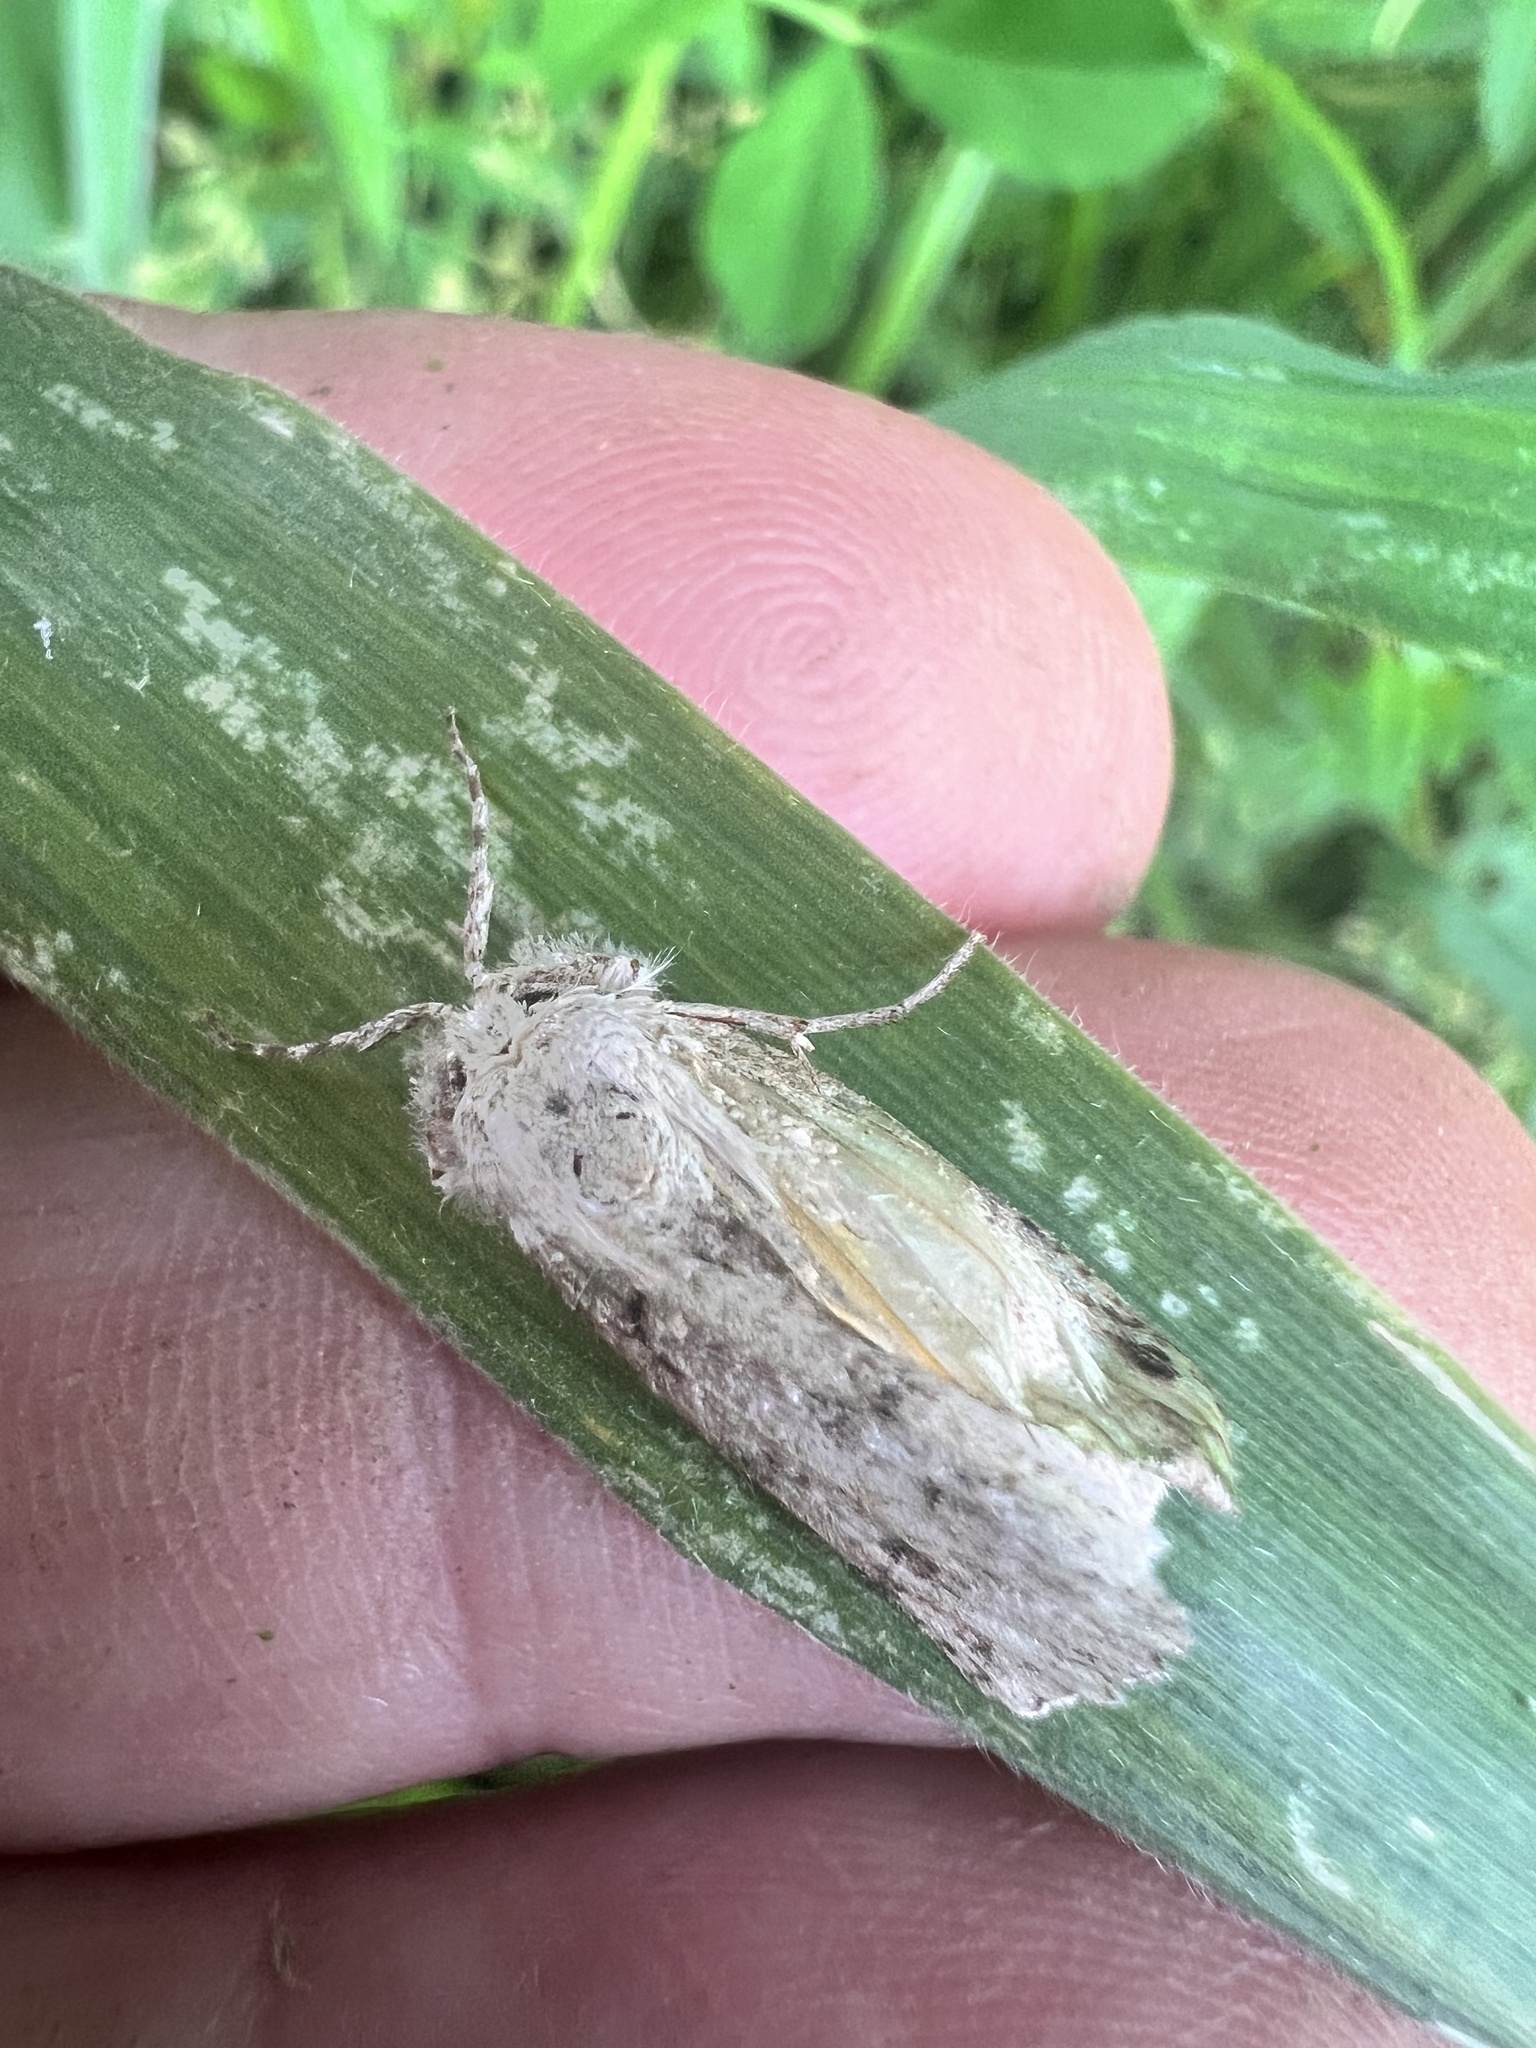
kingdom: Animalia
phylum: Arthropoda
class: Insecta
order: Lepidoptera
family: Geometridae
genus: Declana
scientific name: Declana floccosa
